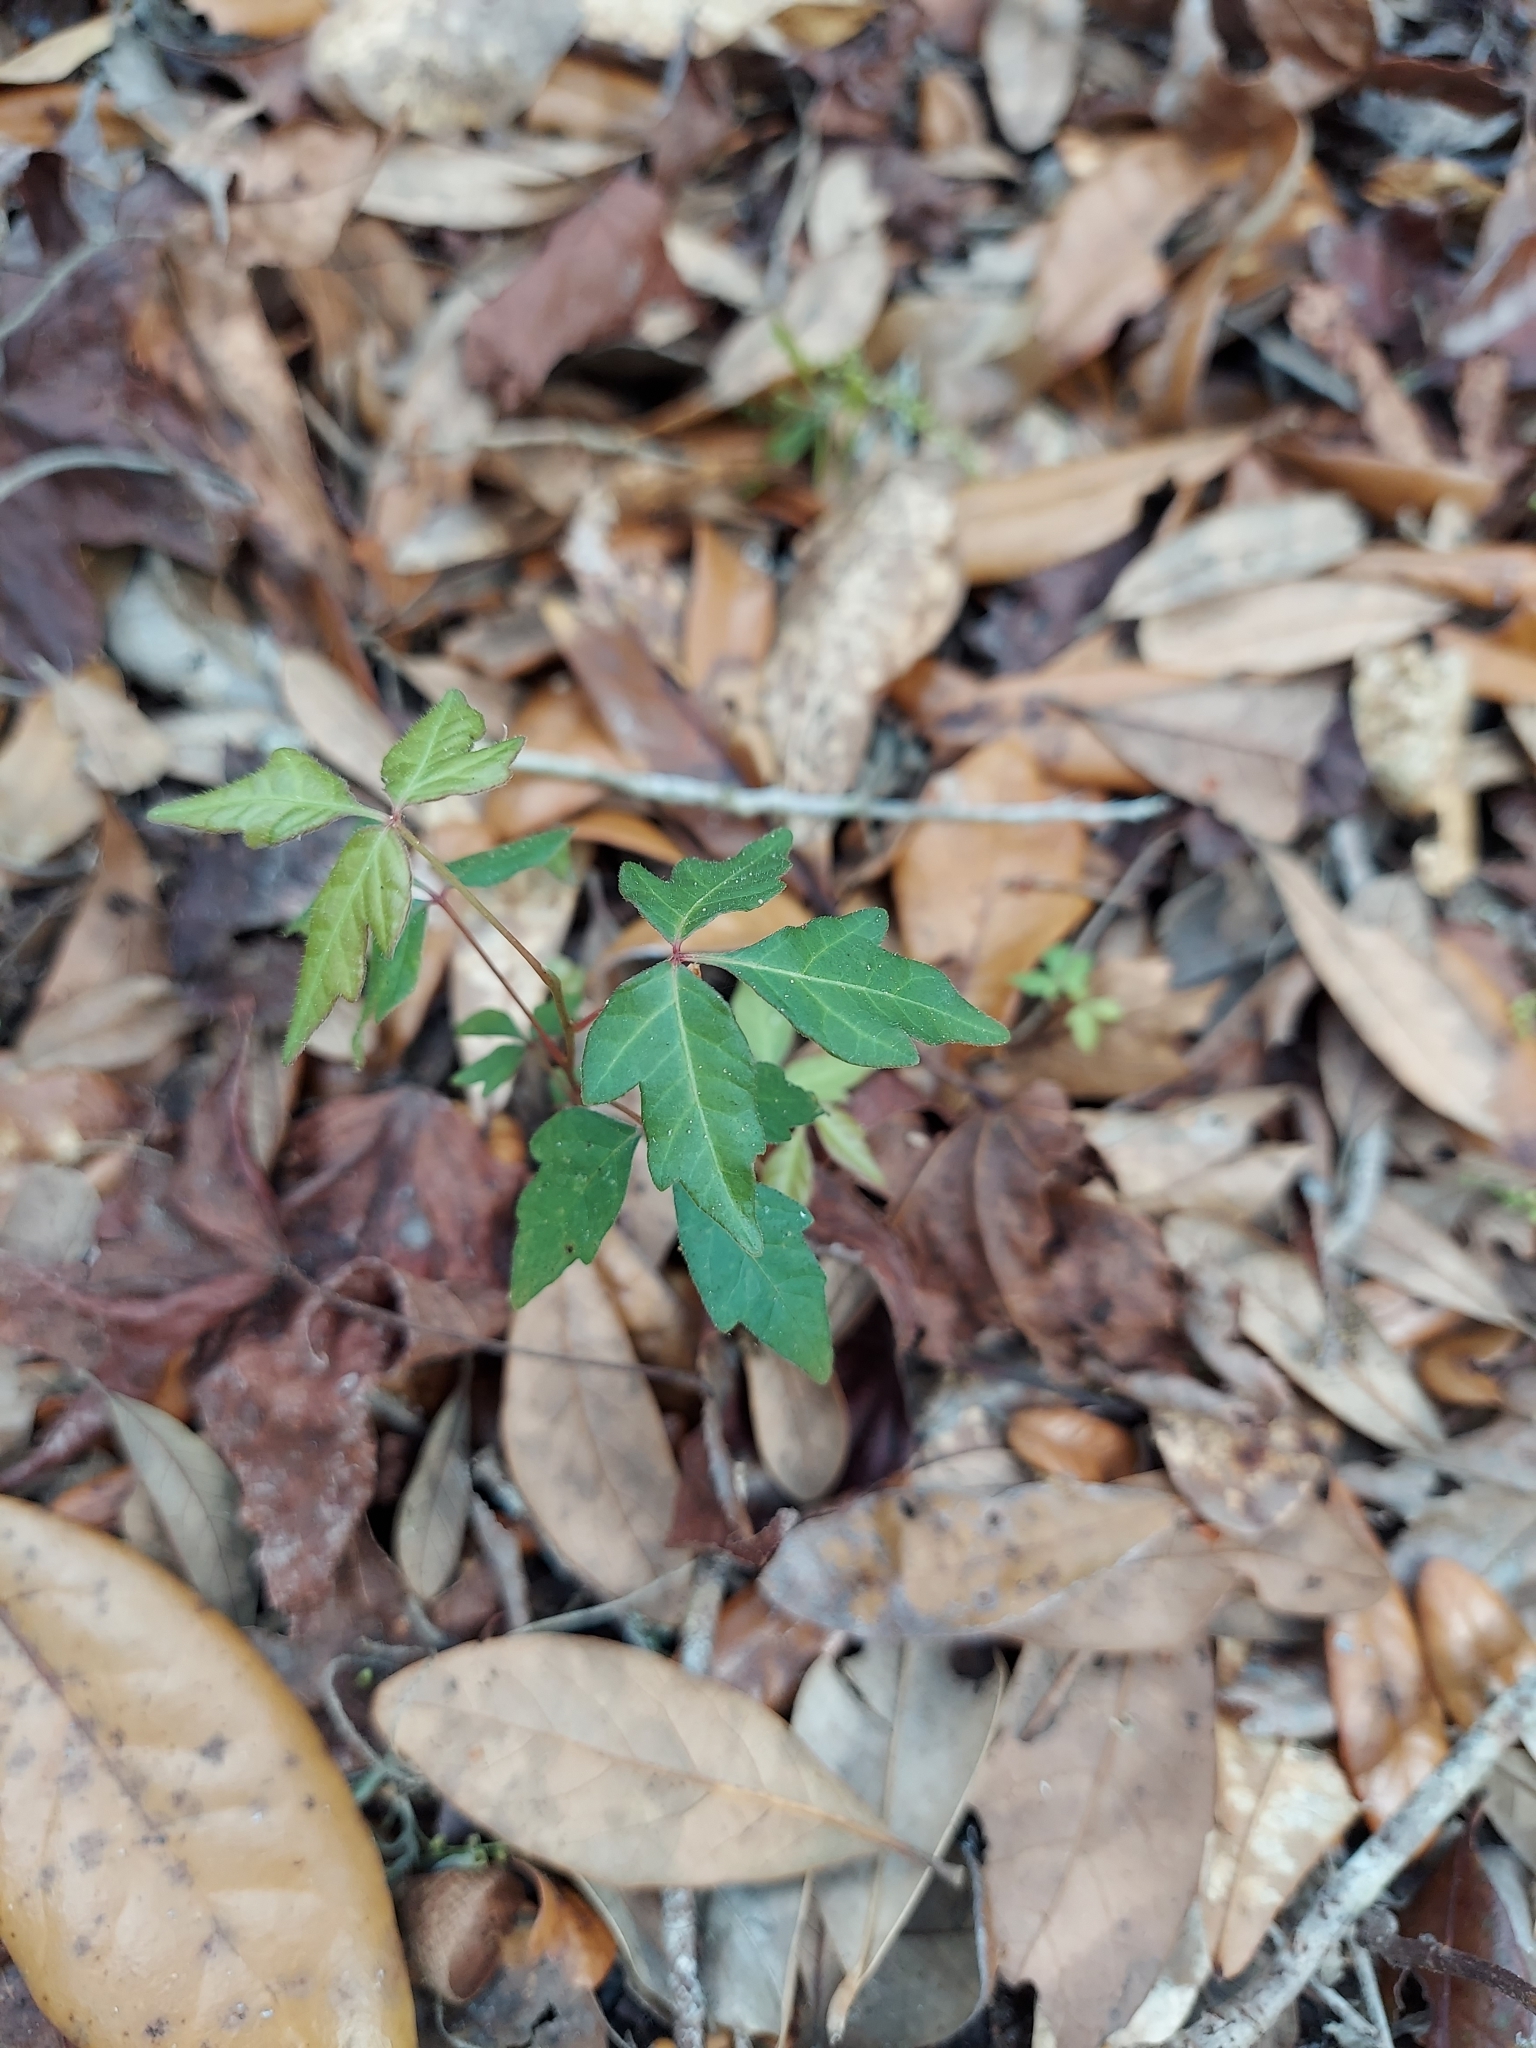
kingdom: Plantae
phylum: Tracheophyta
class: Magnoliopsida
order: Sapindales
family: Anacardiaceae
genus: Toxicodendron
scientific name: Toxicodendron radicans
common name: Poison ivy
